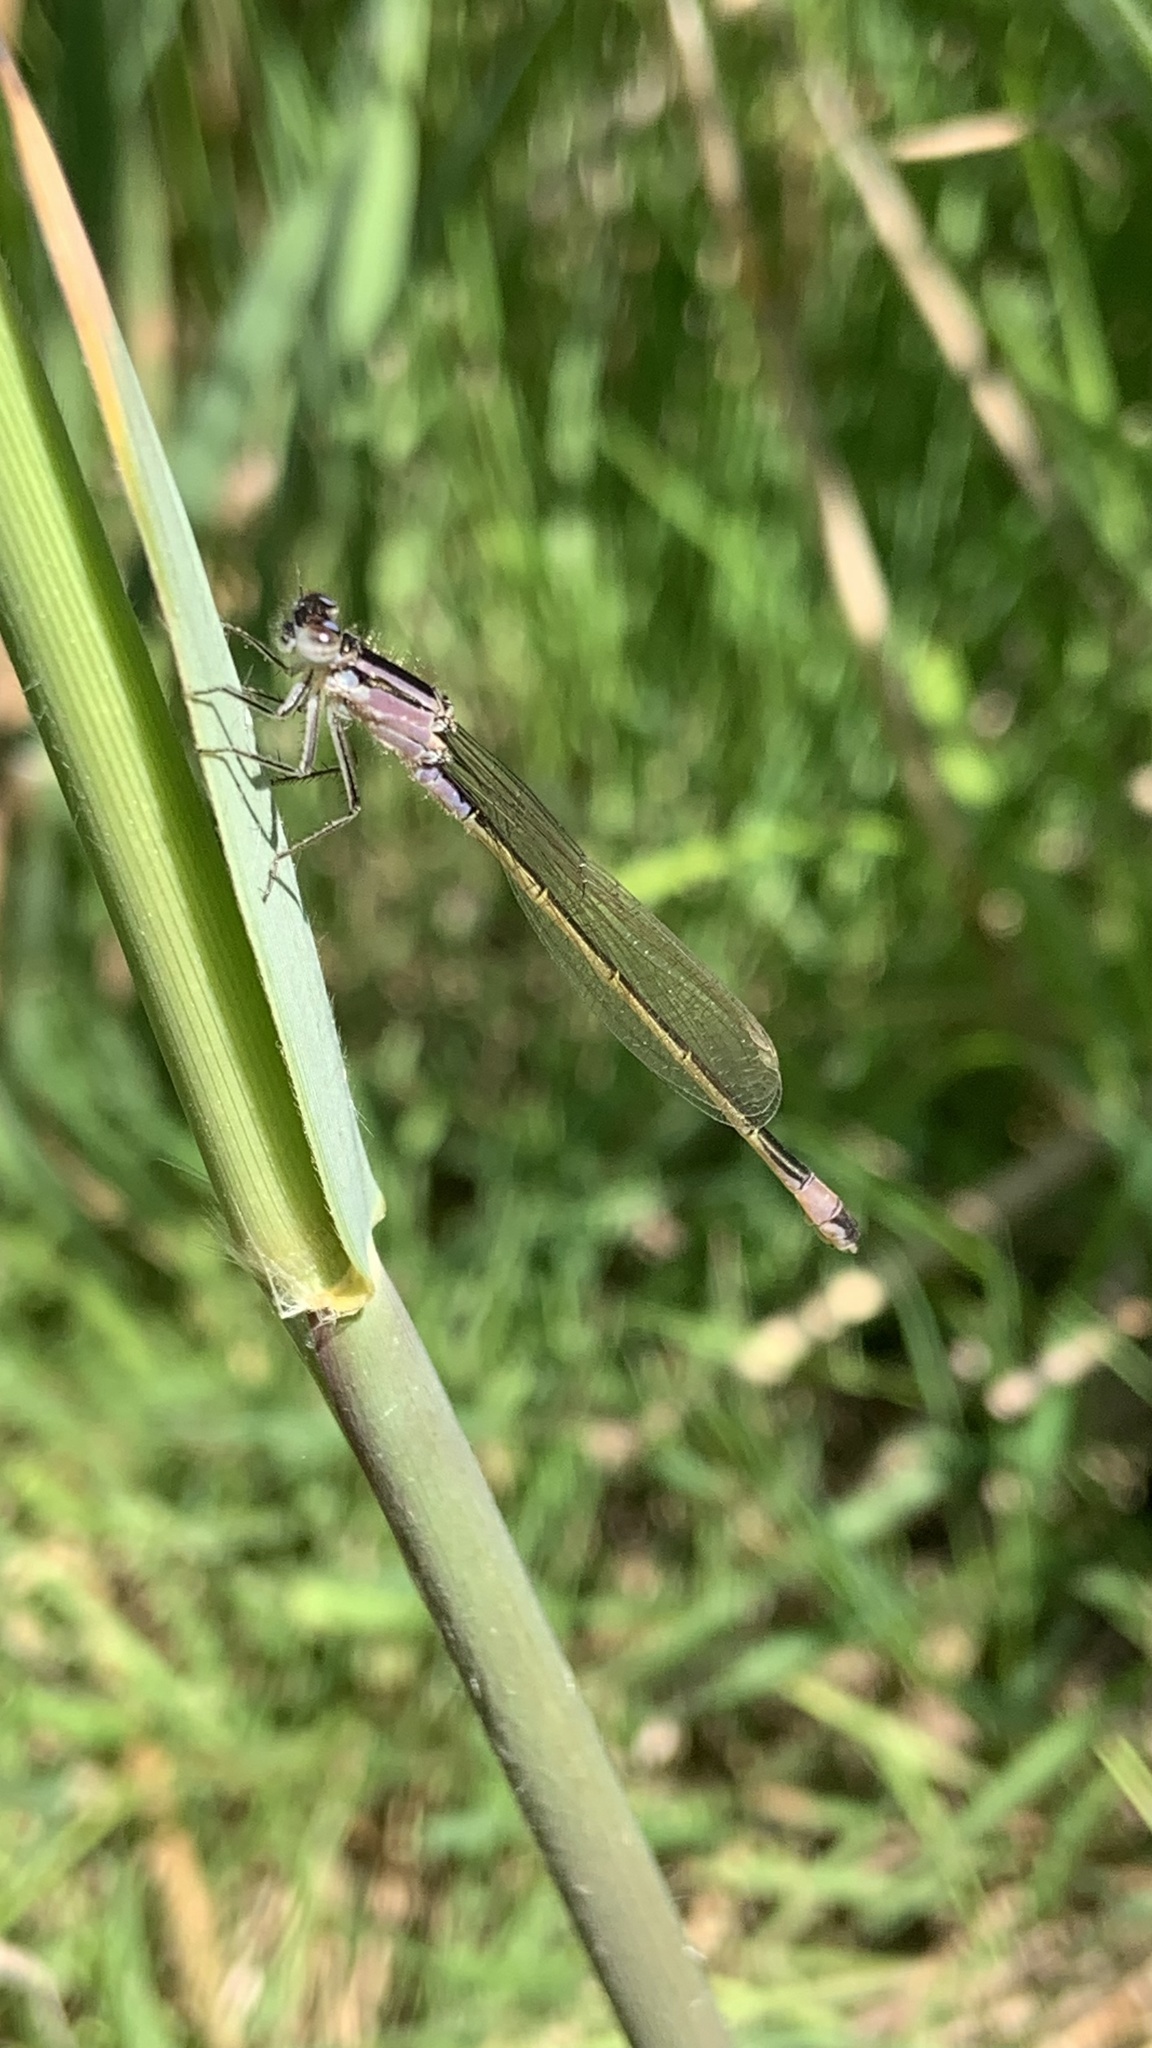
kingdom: Animalia
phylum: Arthropoda
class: Insecta
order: Odonata
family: Coenagrionidae
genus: Ischnura
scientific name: Ischnura elegans
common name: Blue-tailed damselfly
